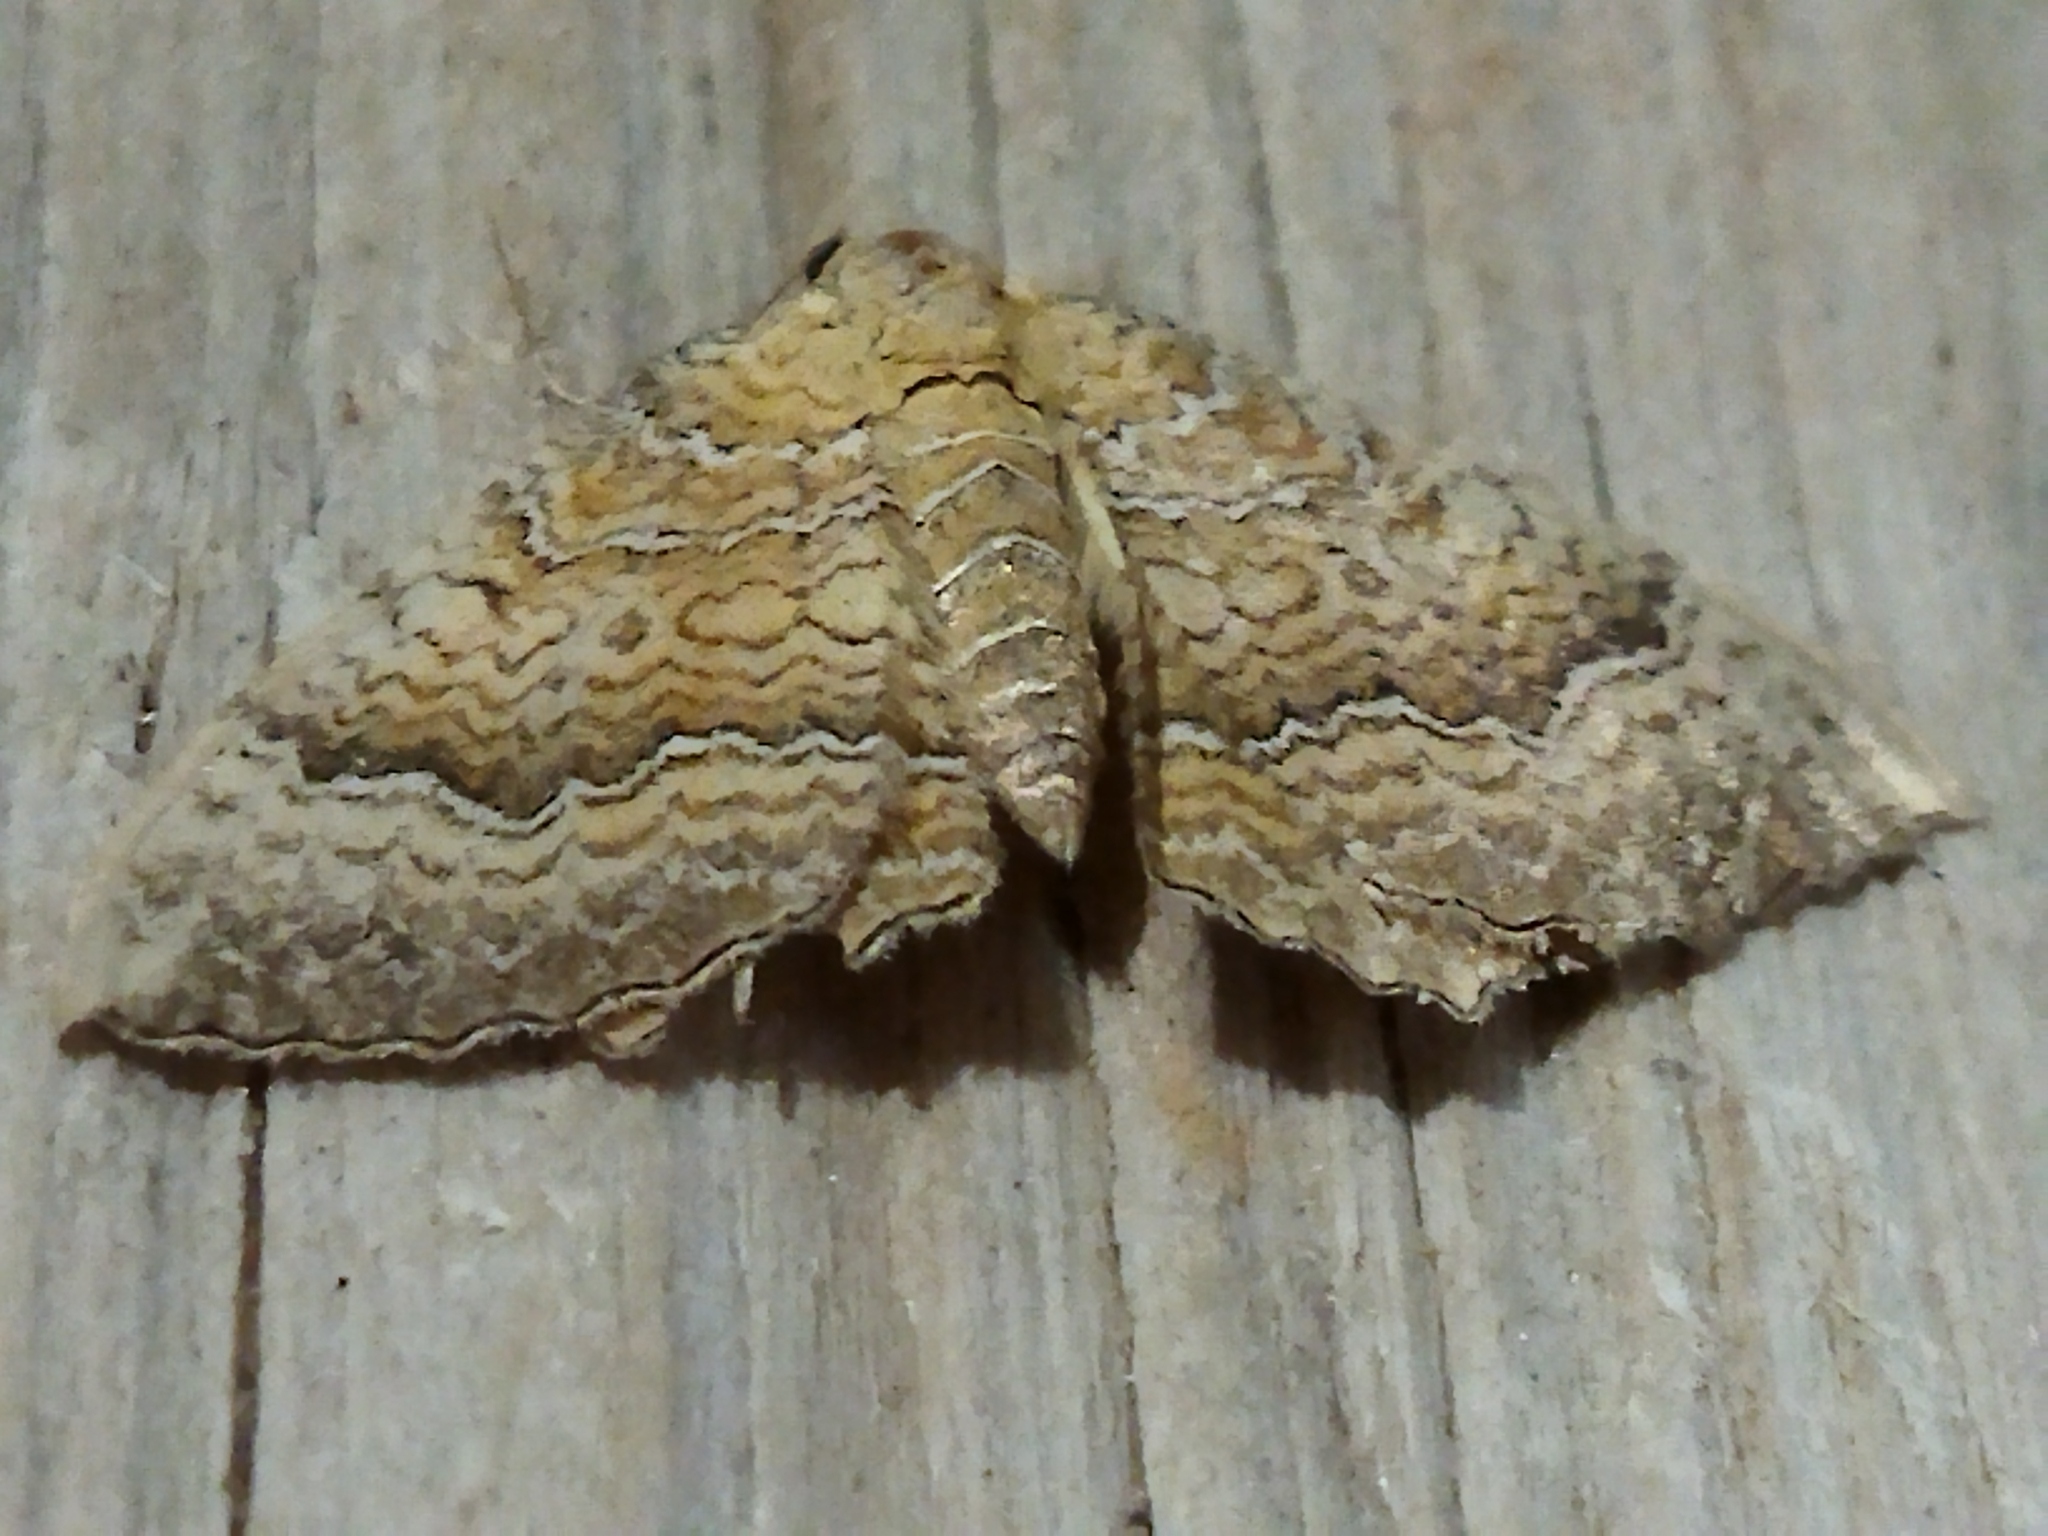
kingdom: Animalia
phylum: Arthropoda
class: Insecta
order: Lepidoptera
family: Geometridae
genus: Camptogramma
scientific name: Camptogramma bilineata
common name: Yellow shell
